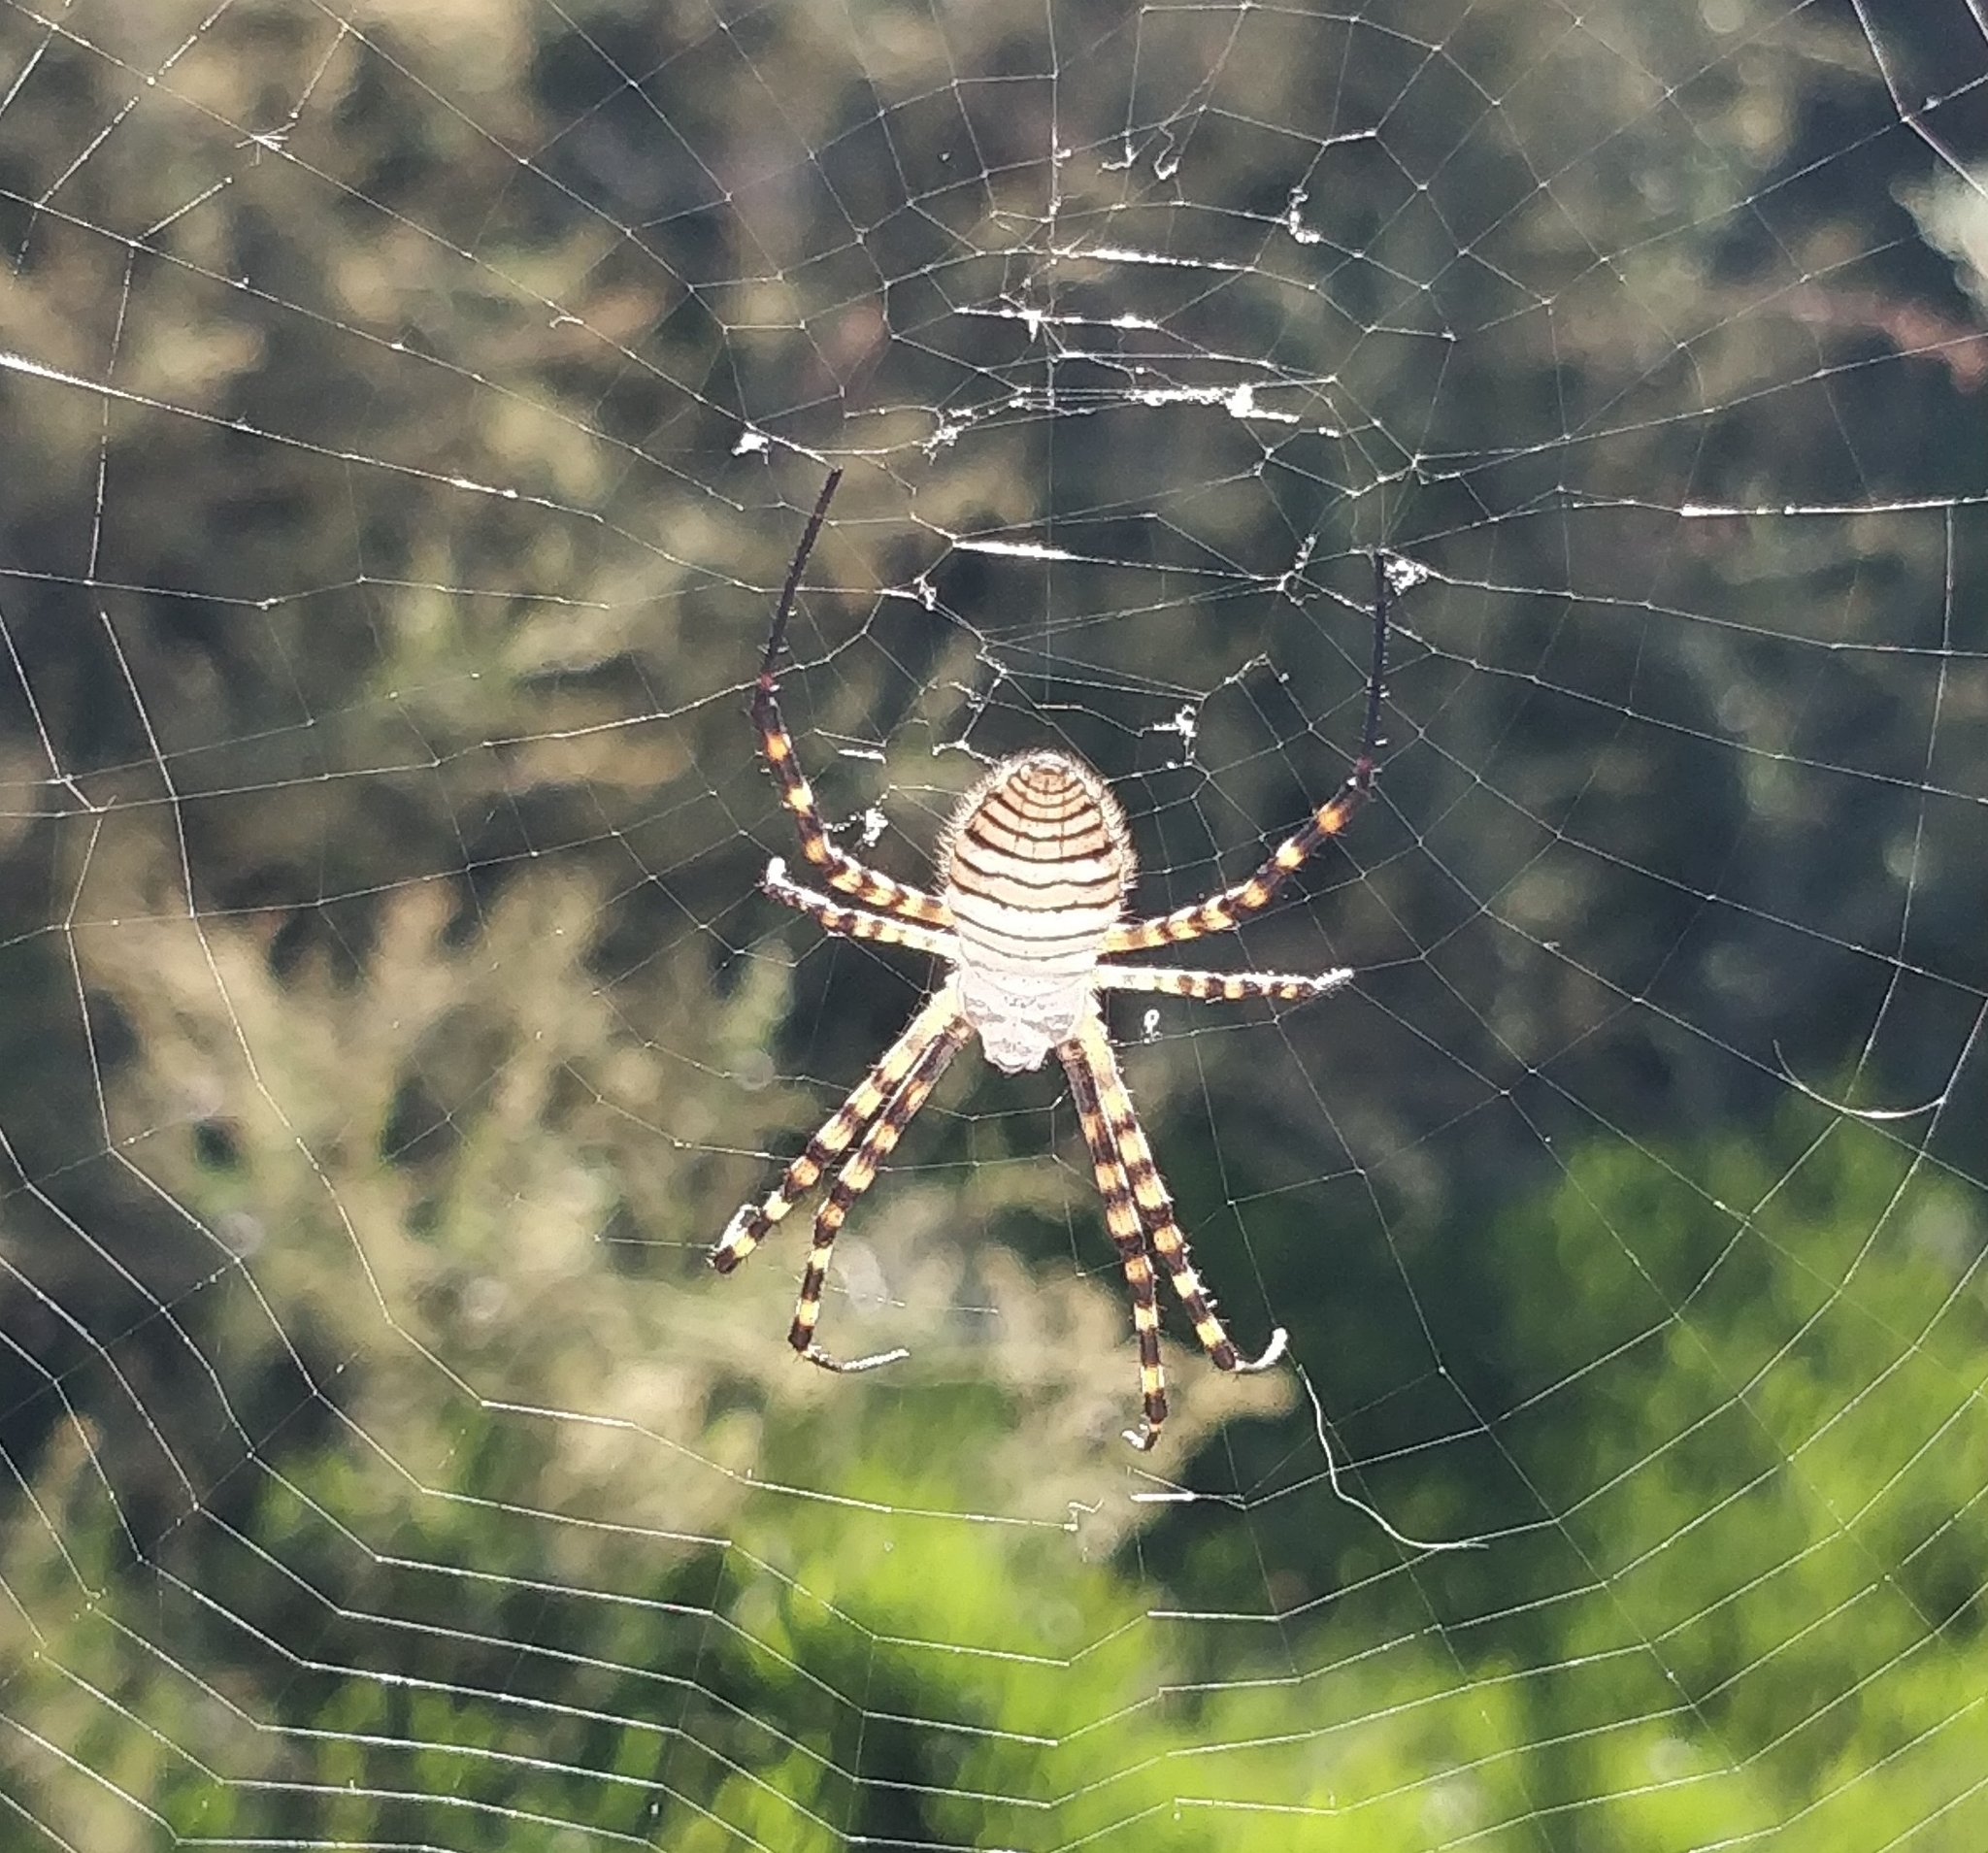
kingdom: Animalia
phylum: Arthropoda
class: Arachnida
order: Araneae
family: Araneidae
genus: Argiope
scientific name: Argiope trifasciata
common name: Banded garden spider
